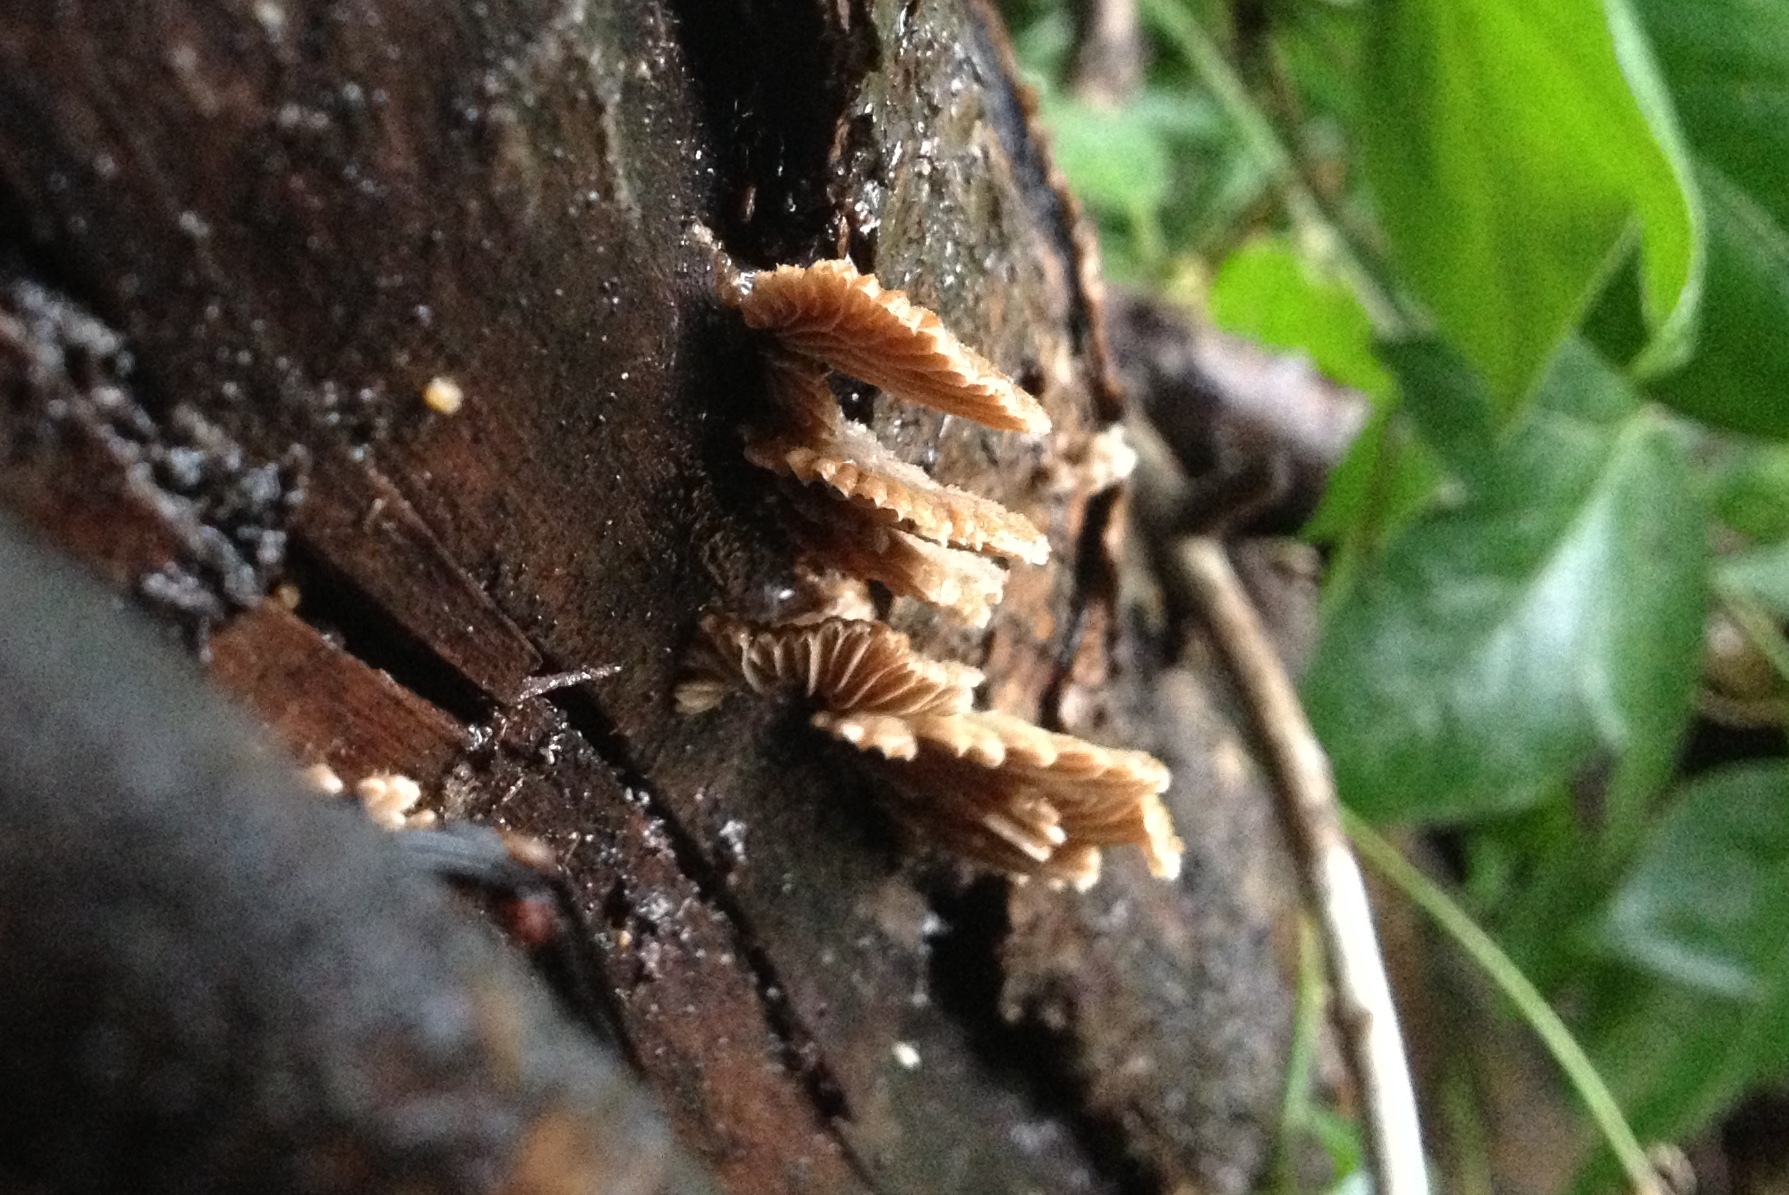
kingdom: Fungi
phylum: Basidiomycota
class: Agaricomycetes
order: Agaricales
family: Schizophyllaceae
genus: Schizophyllum
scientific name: Schizophyllum commune
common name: Common porecrust
